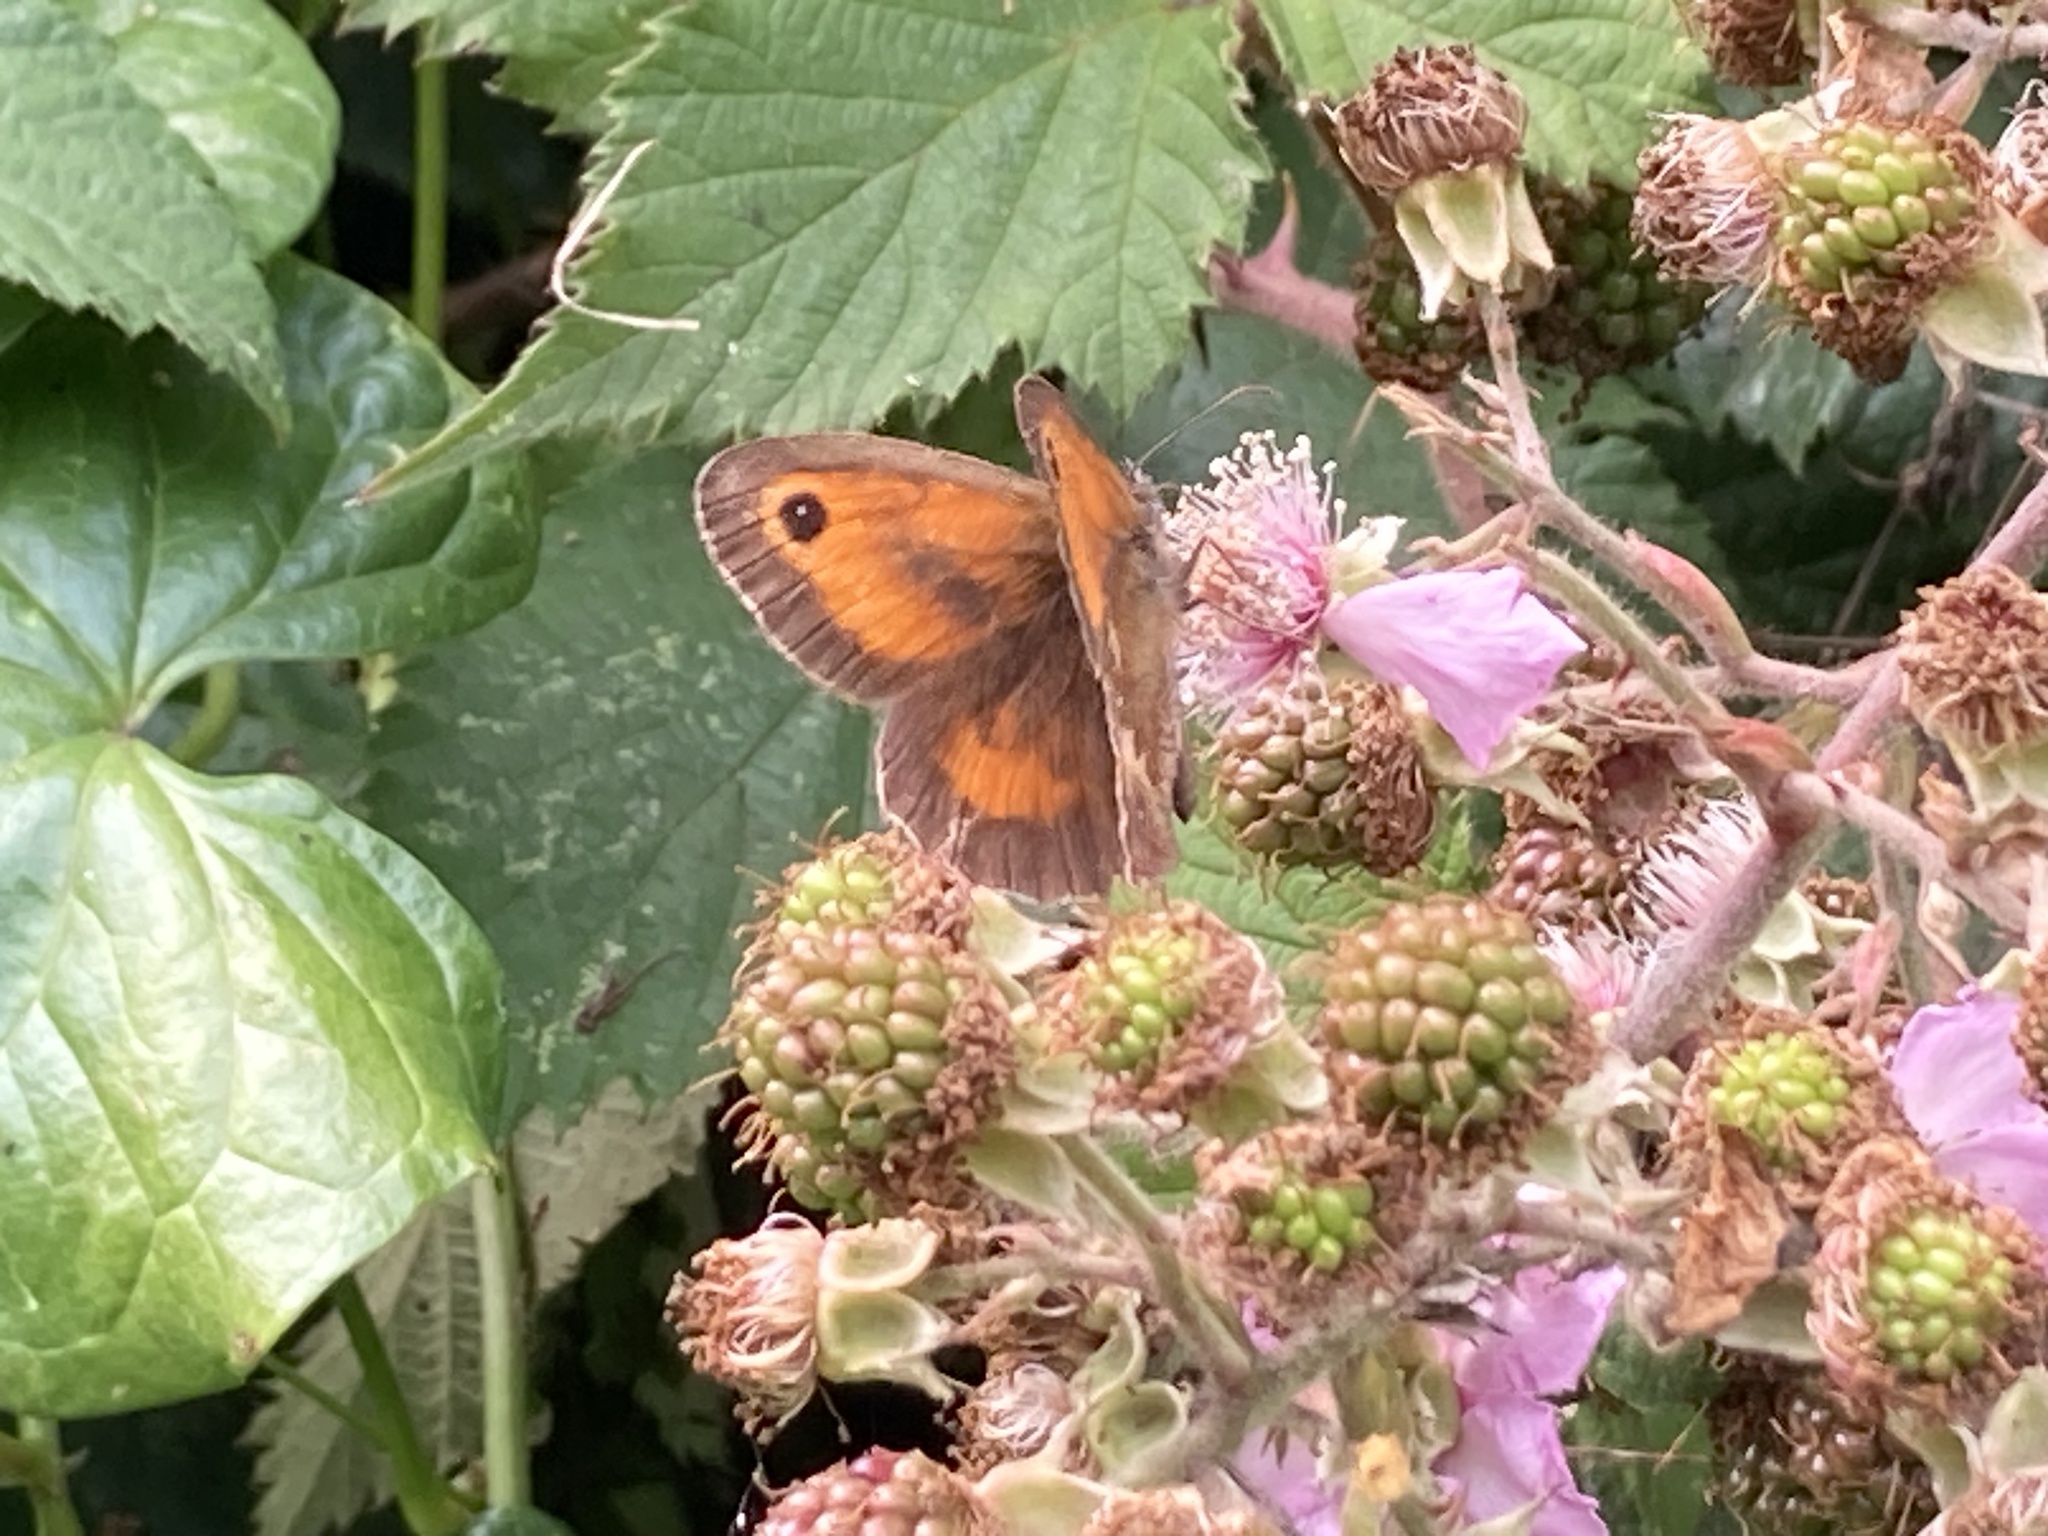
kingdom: Animalia
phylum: Arthropoda
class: Insecta
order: Lepidoptera
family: Nymphalidae
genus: Pyronia
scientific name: Pyronia tithonus
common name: Gatekeeper
